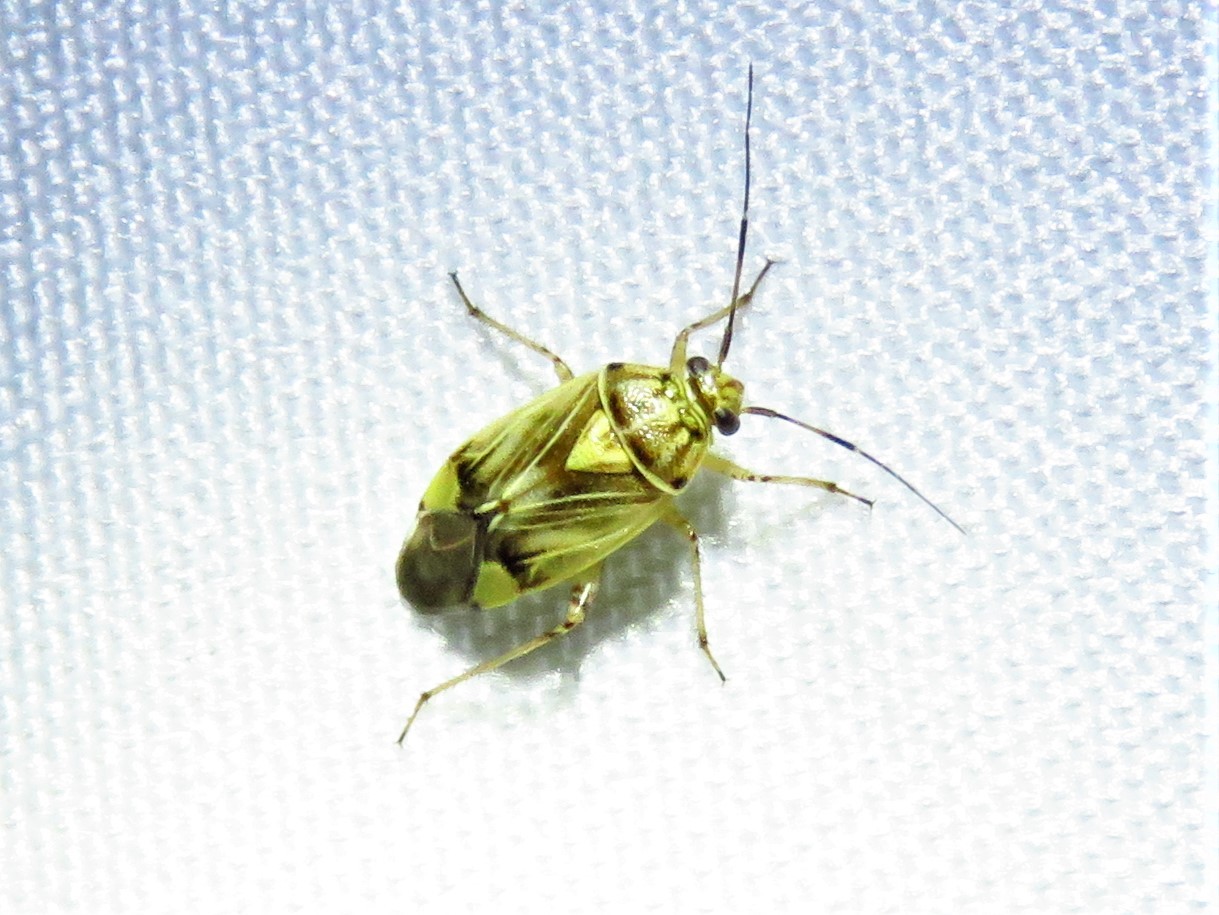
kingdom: Animalia
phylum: Arthropoda
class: Insecta
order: Hemiptera
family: Miridae
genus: Lygus
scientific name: Lygus lineolaris
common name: North american tarnished plant bug
